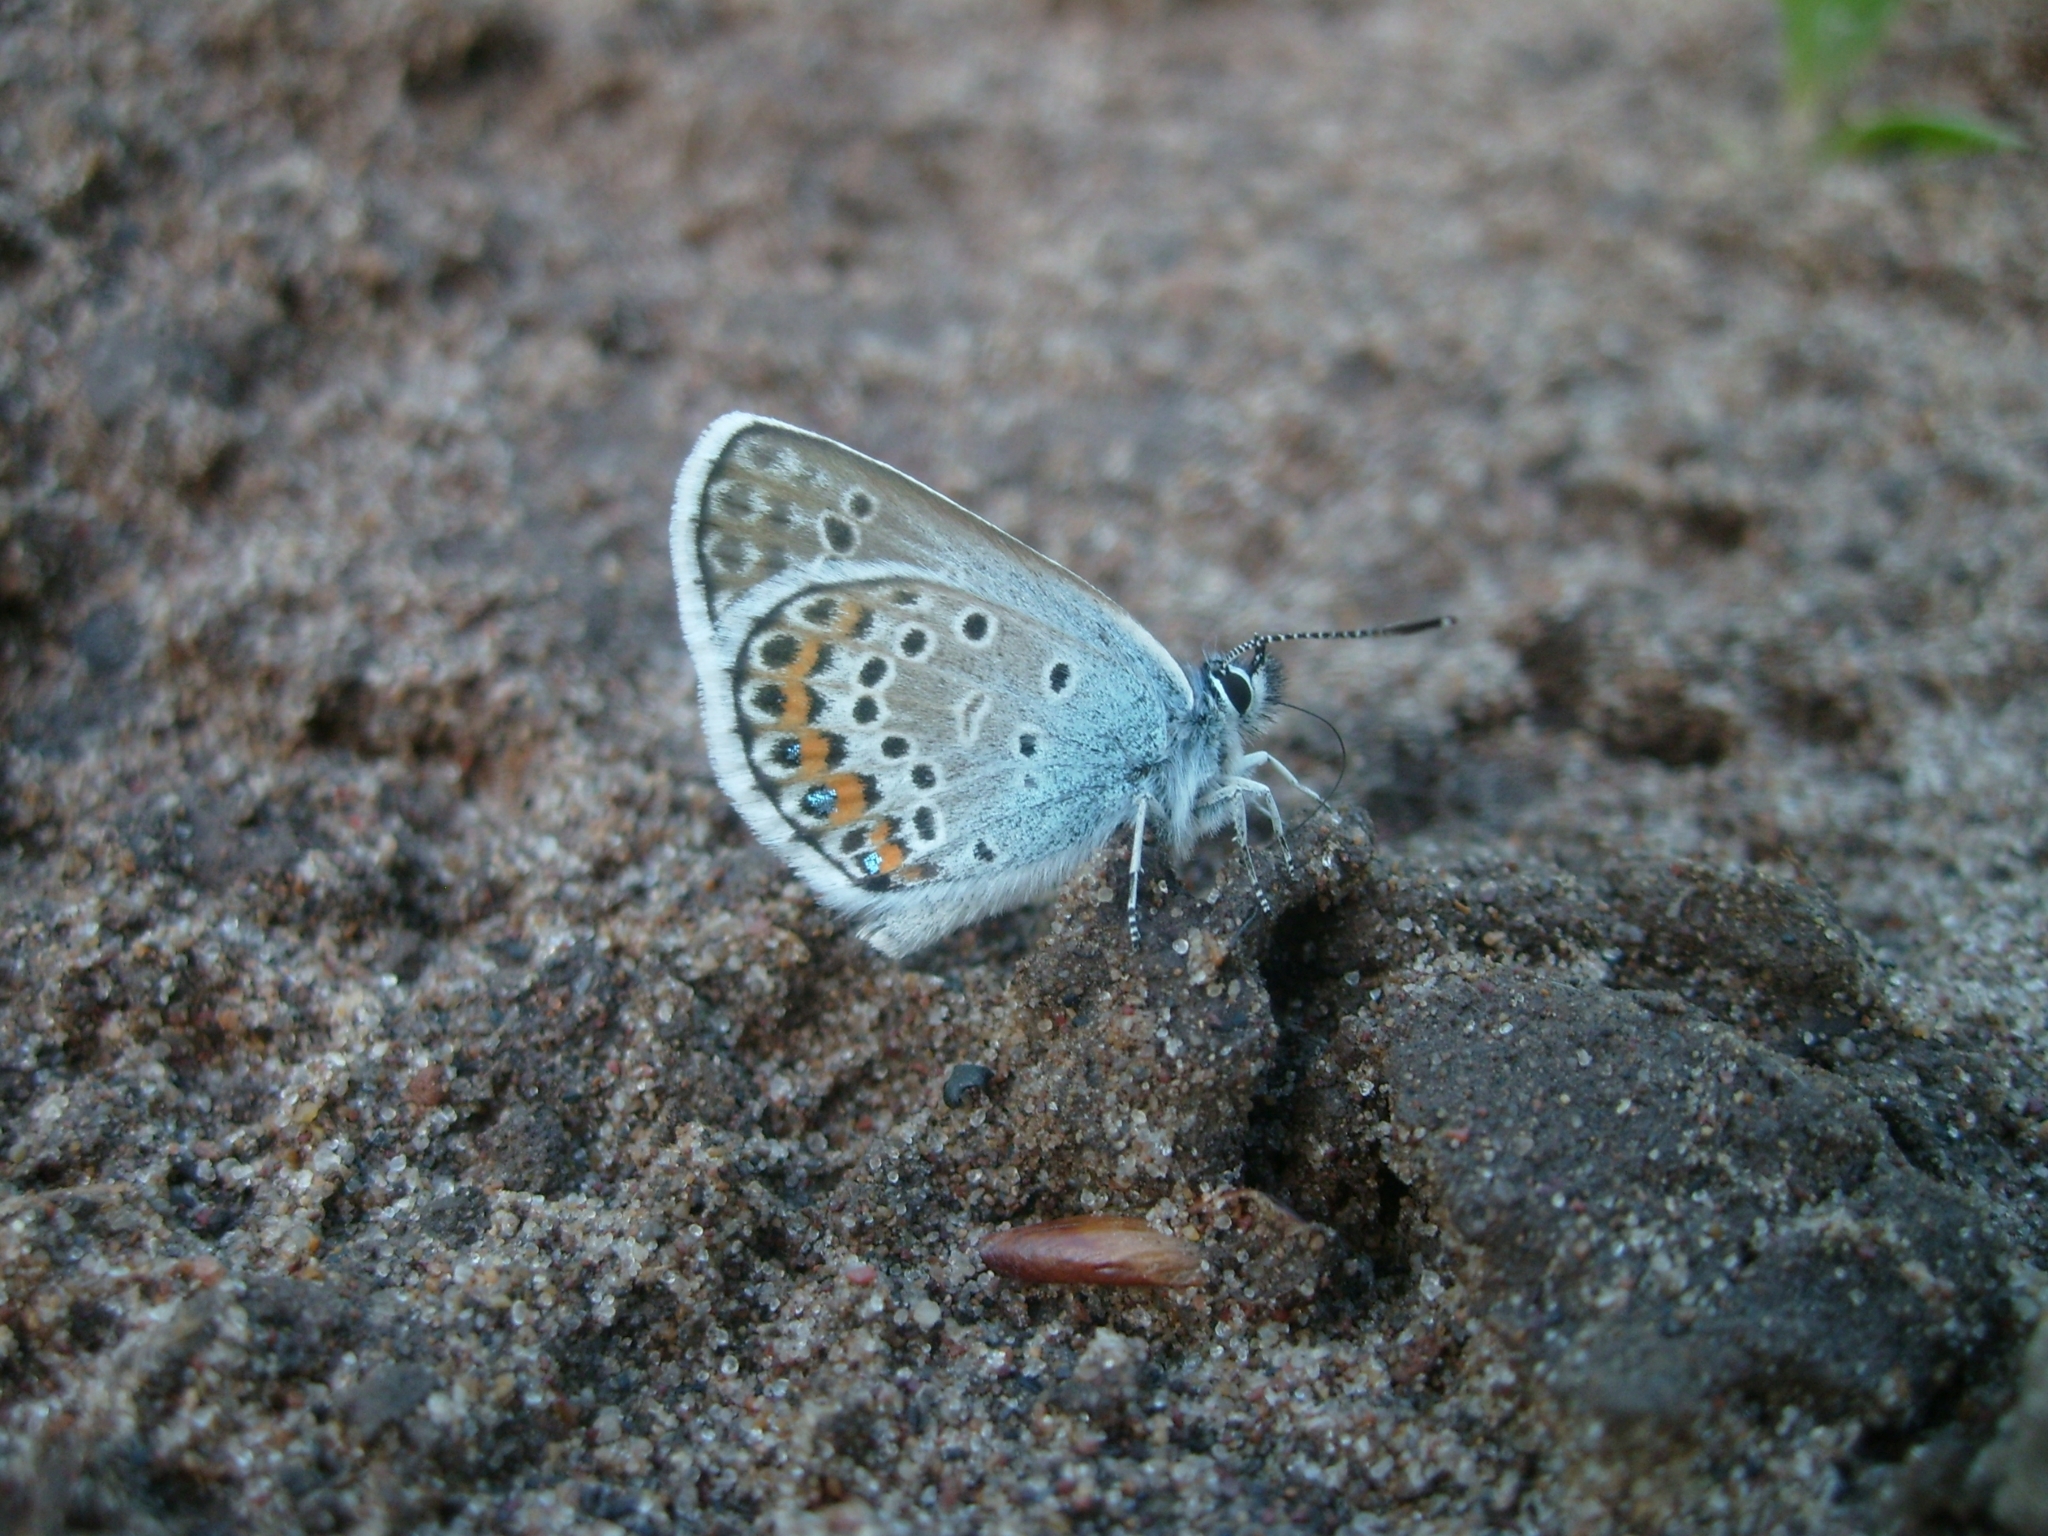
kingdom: Animalia
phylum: Arthropoda
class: Insecta
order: Lepidoptera
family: Lycaenidae
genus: Plebejus
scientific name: Plebejus argus
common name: Silver-studded blue
